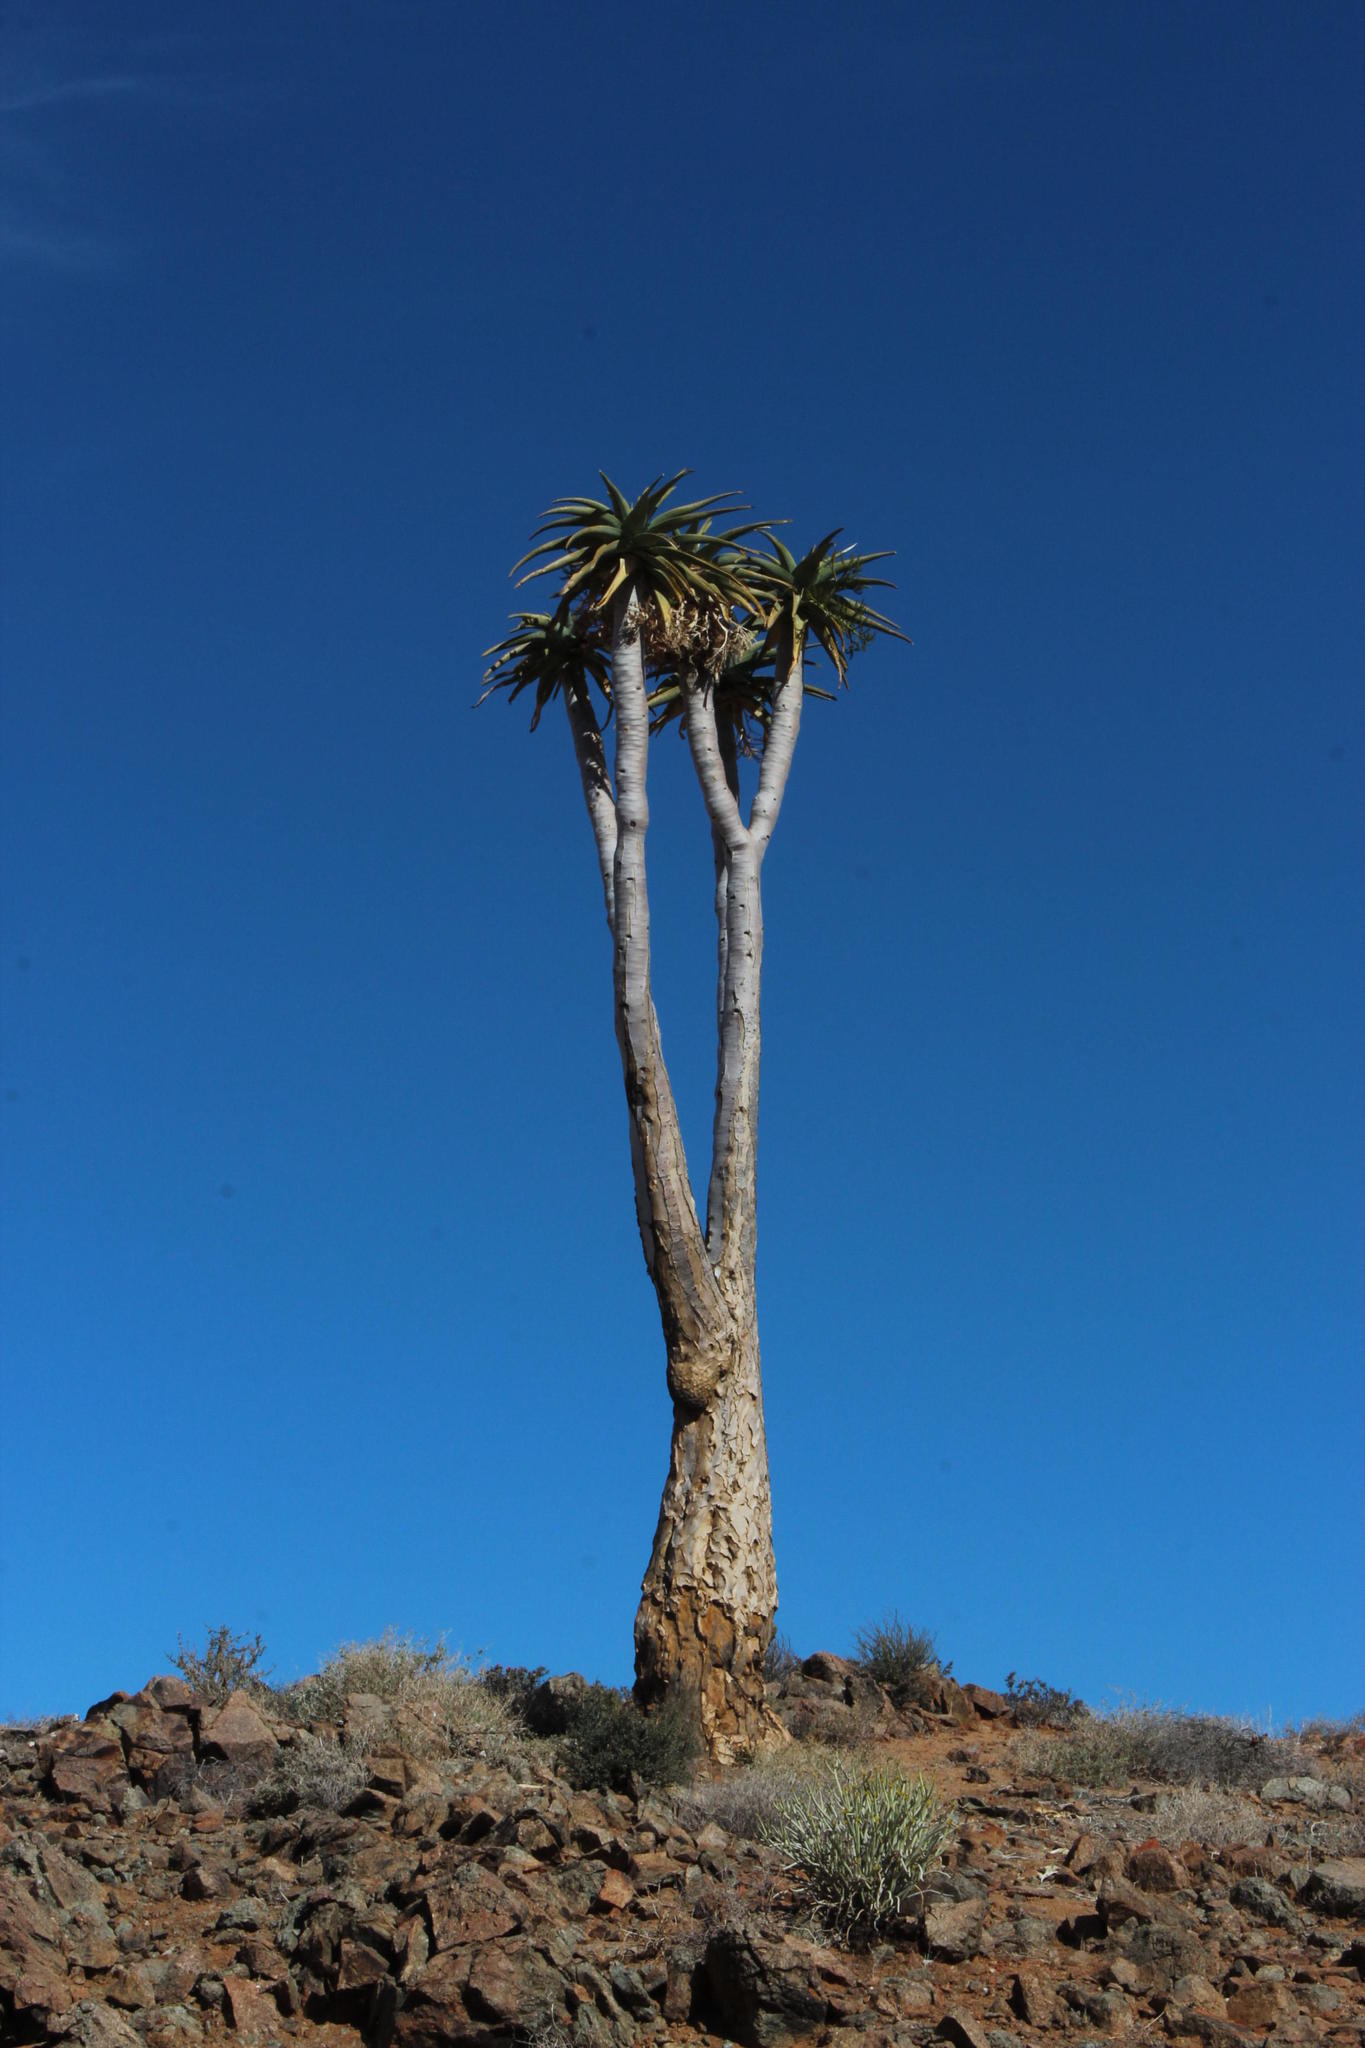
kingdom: Plantae
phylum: Tracheophyta
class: Liliopsida
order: Asparagales
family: Asphodelaceae
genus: Aloidendron
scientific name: Aloidendron pillansii
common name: Bastard quiver tree
